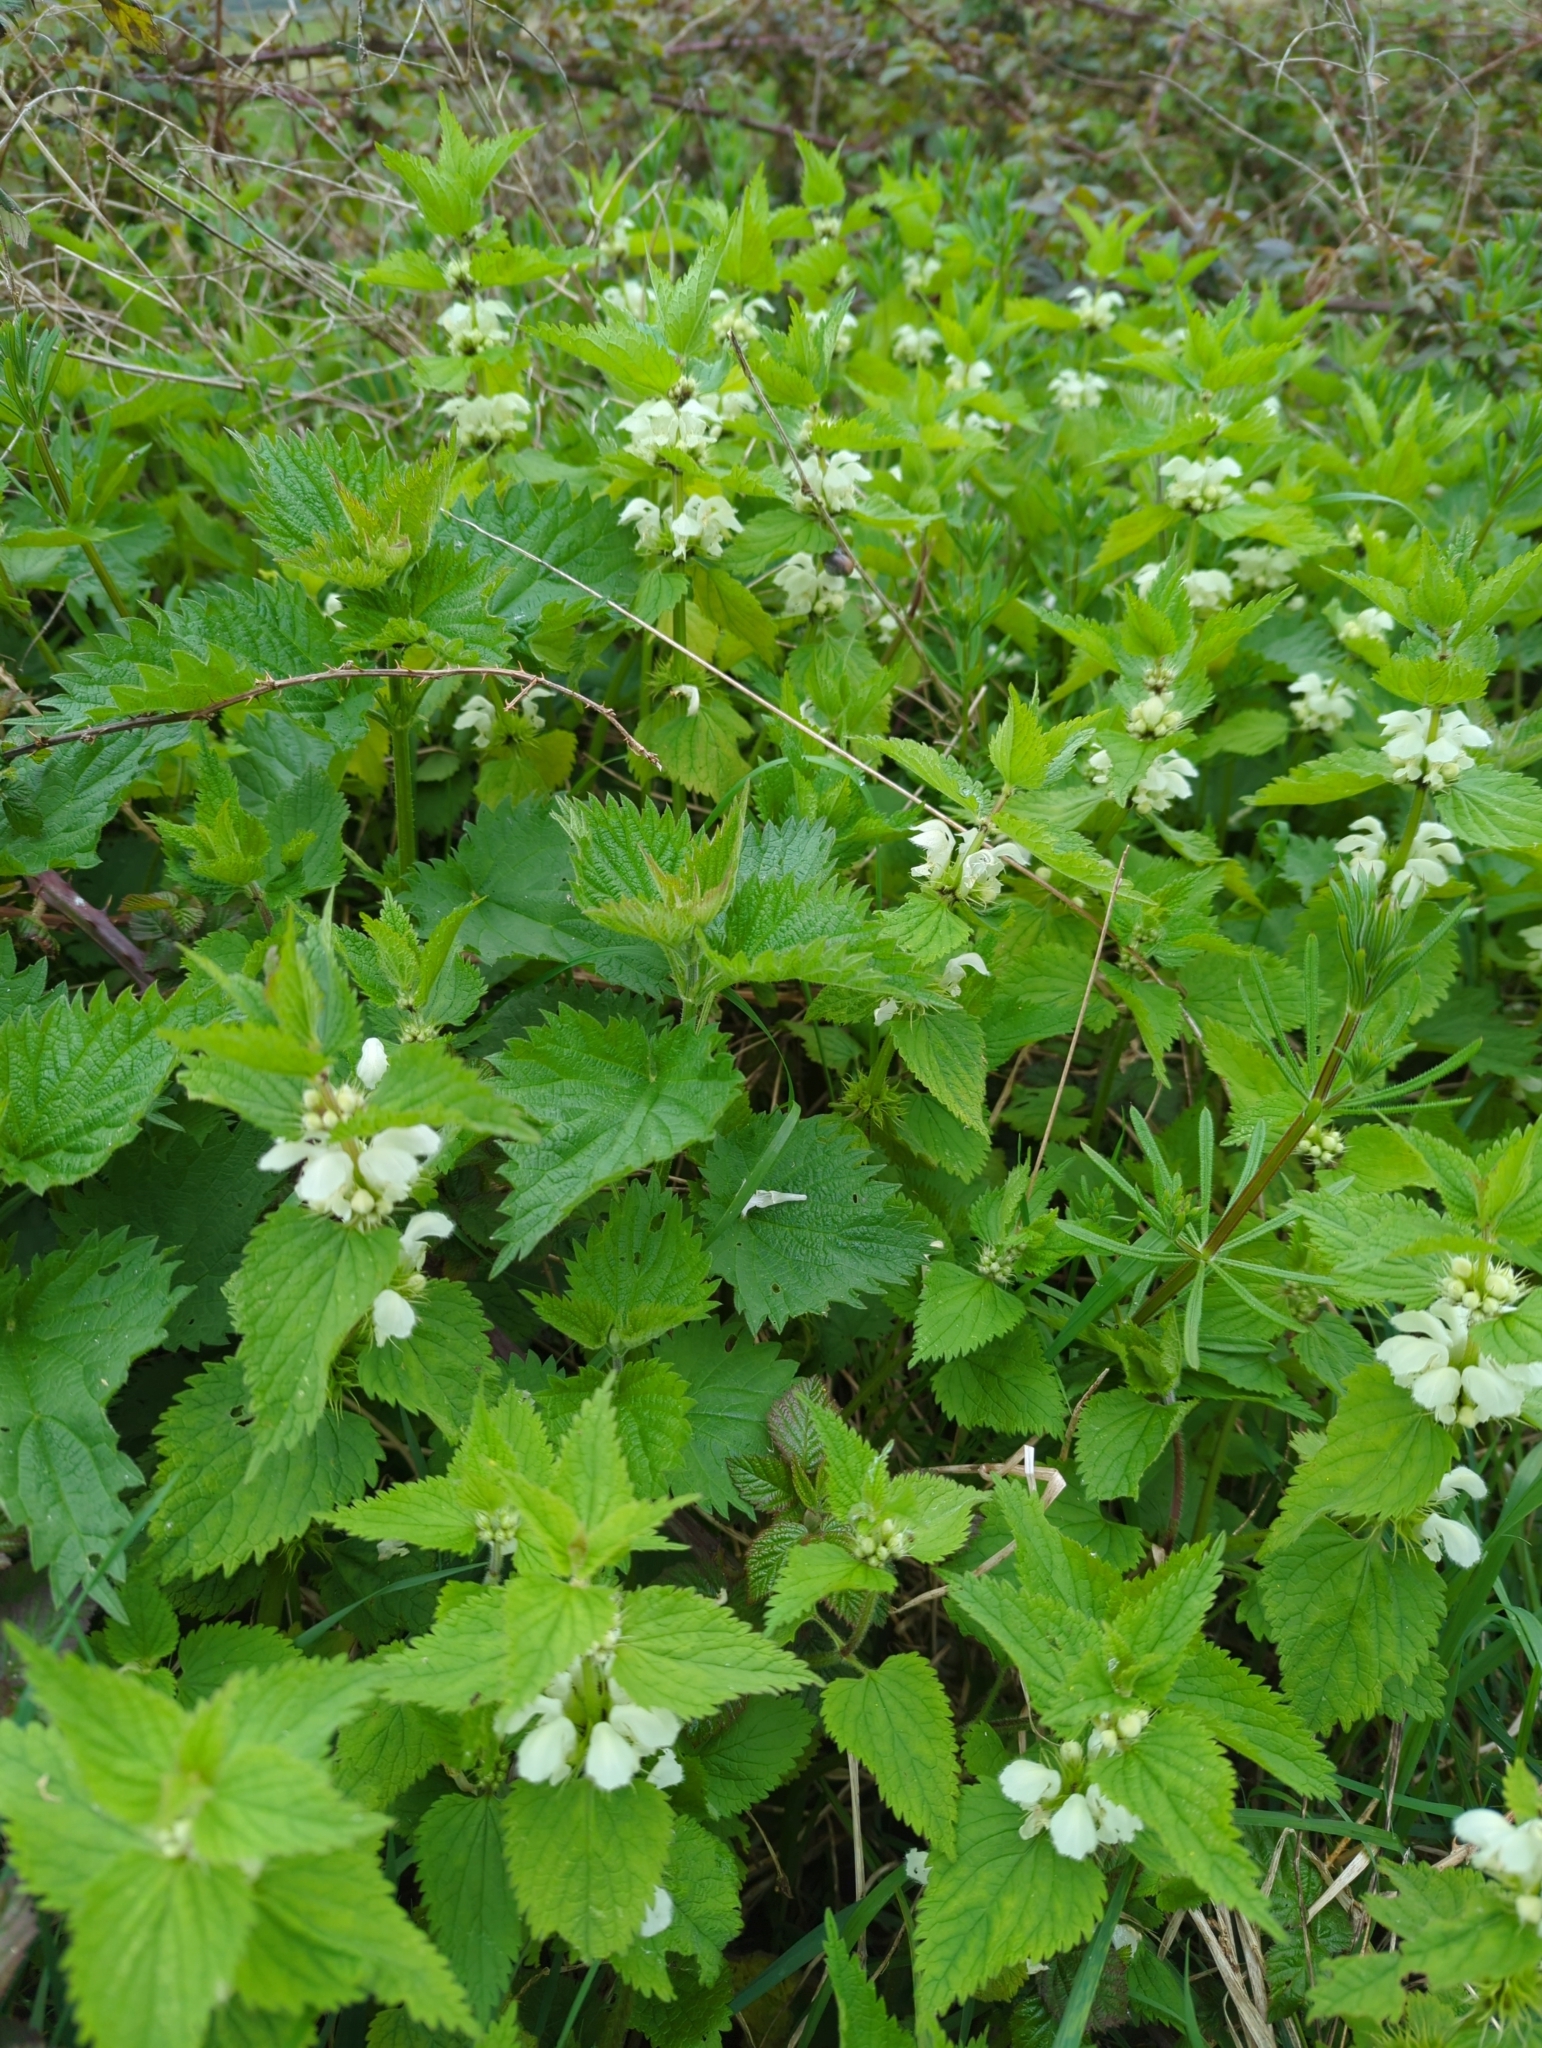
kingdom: Plantae
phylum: Tracheophyta
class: Magnoliopsida
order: Lamiales
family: Lamiaceae
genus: Lamium
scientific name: Lamium album
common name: White dead-nettle
